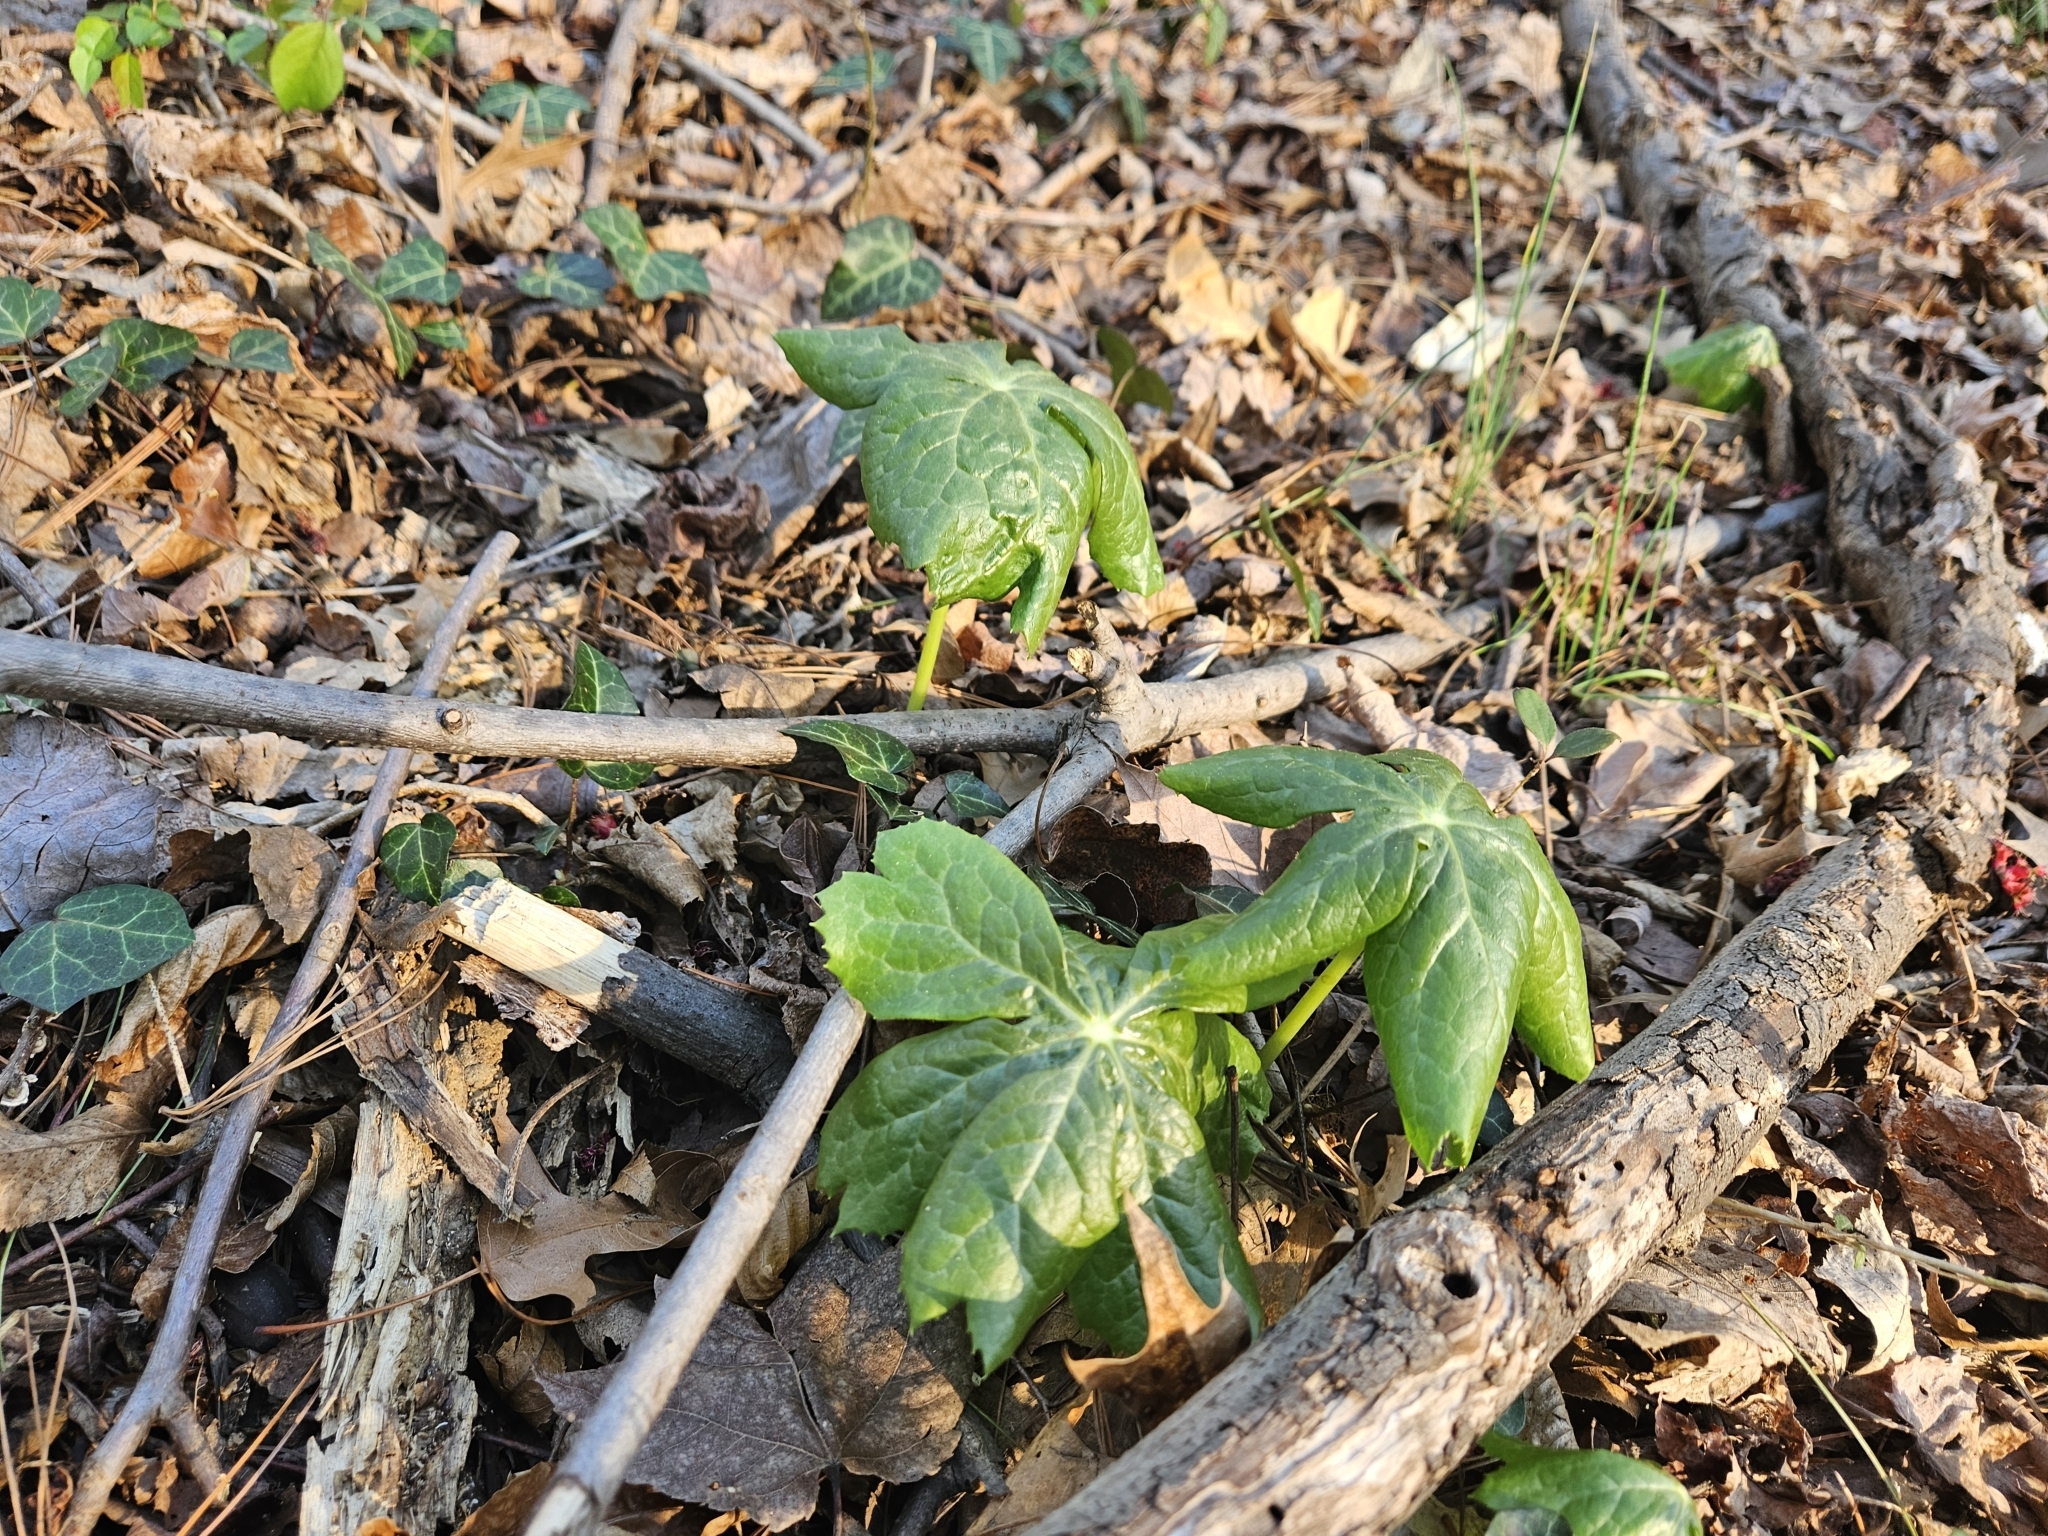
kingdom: Plantae
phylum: Tracheophyta
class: Magnoliopsida
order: Ranunculales
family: Berberidaceae
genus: Podophyllum
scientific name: Podophyllum peltatum
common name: Wild mandrake
